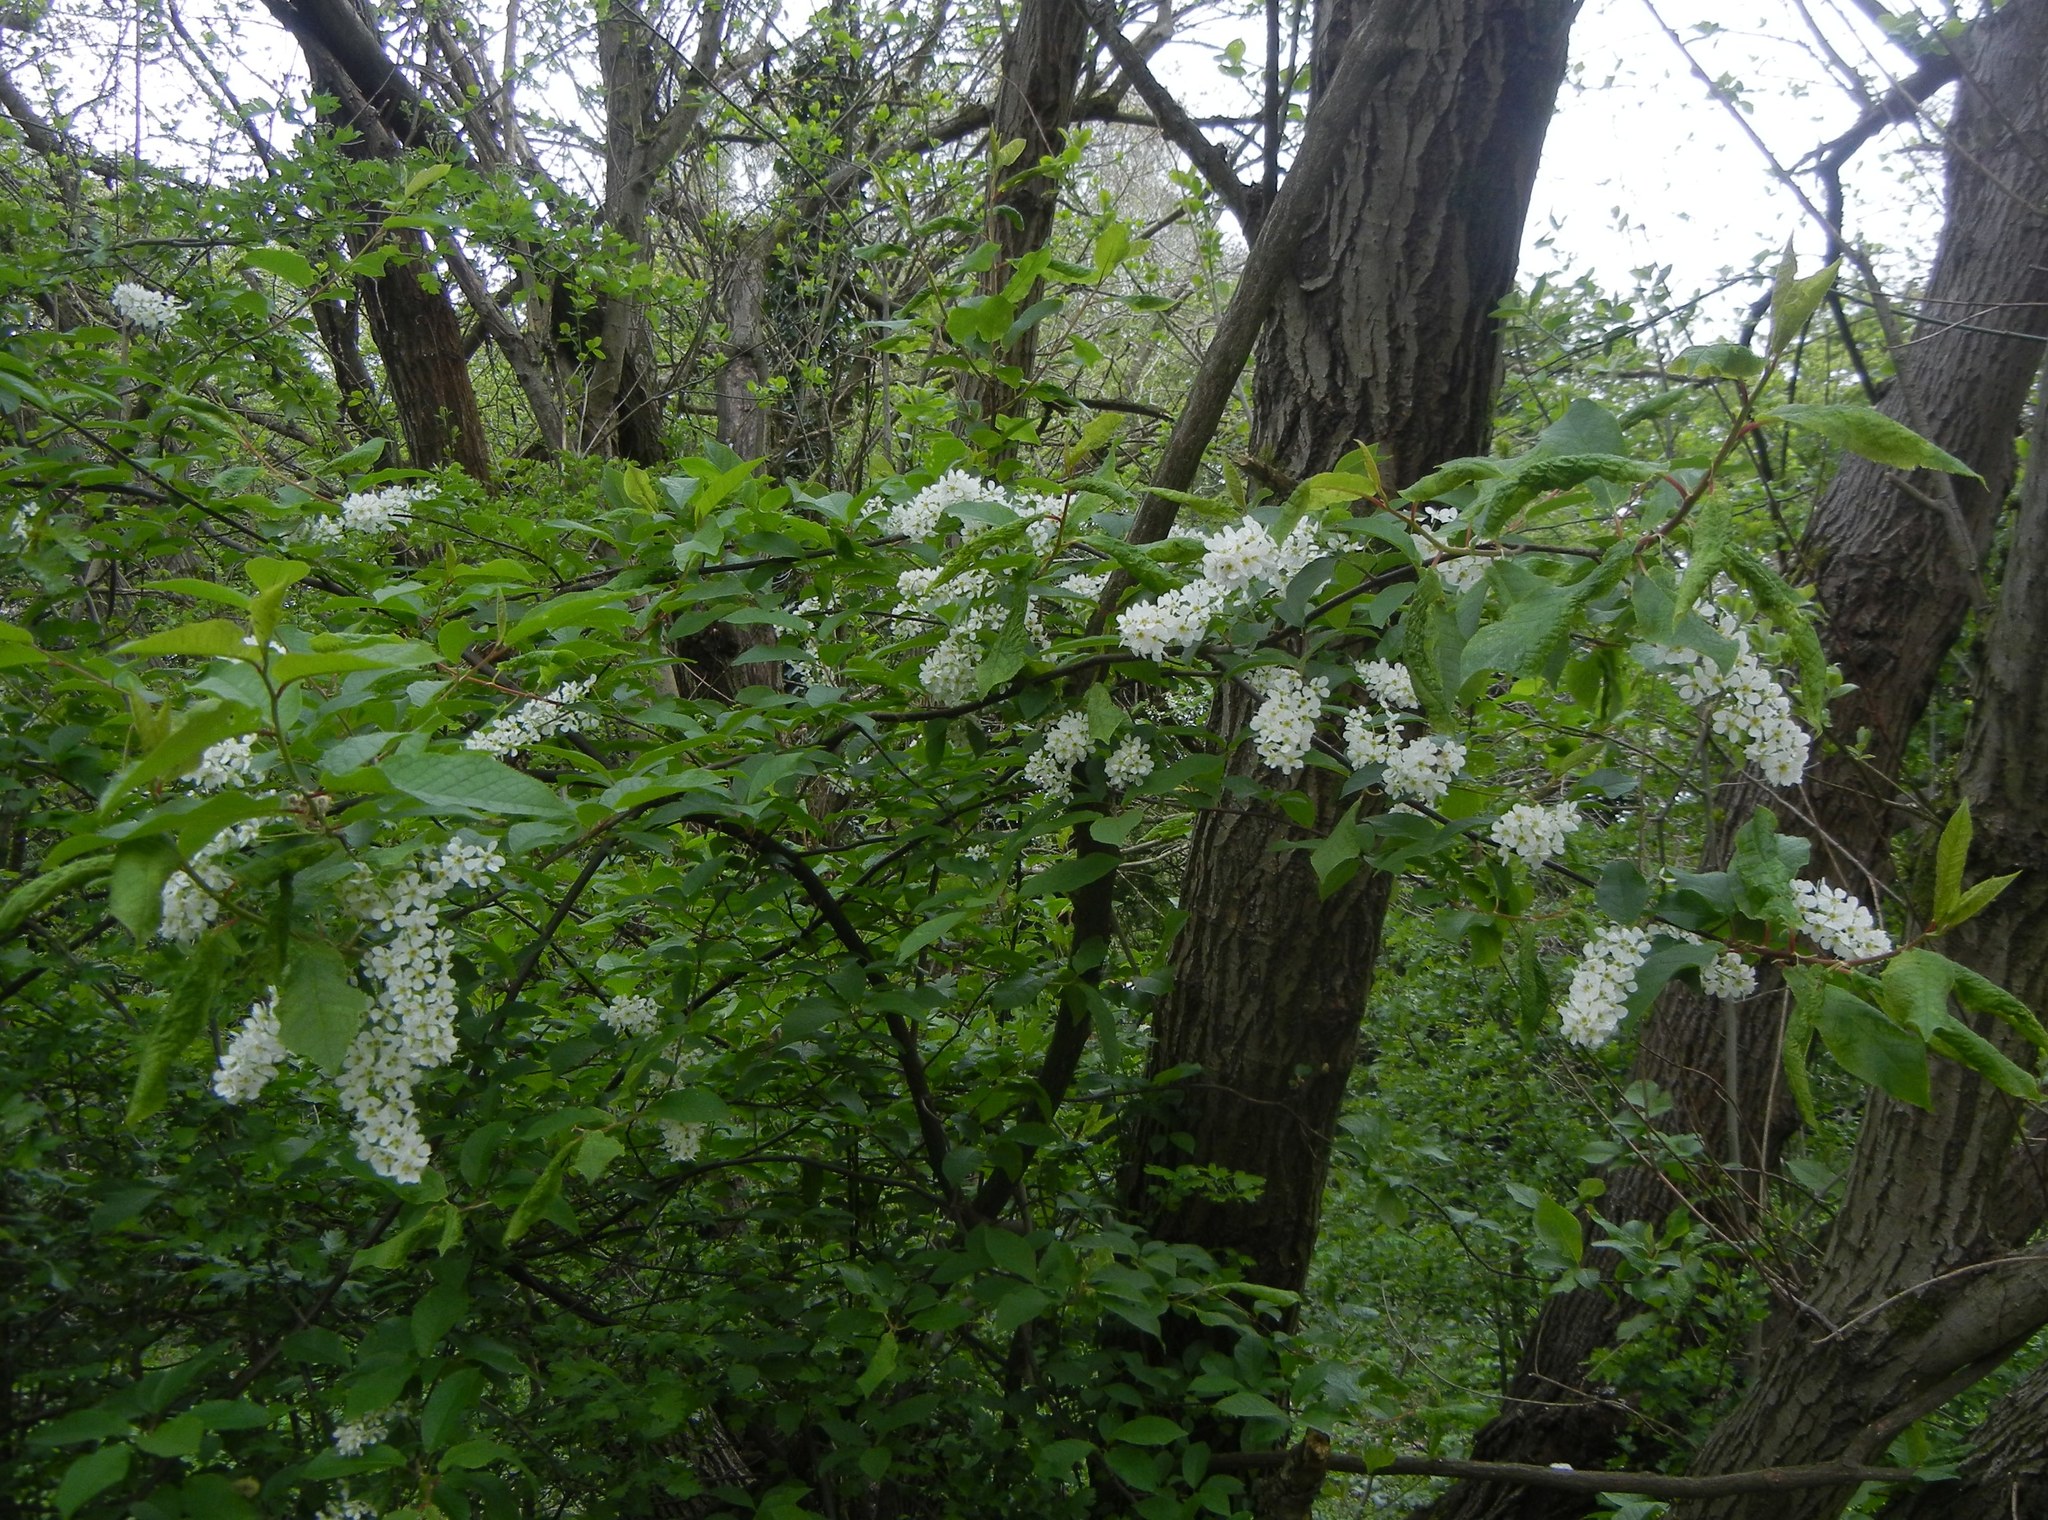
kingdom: Plantae
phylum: Tracheophyta
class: Magnoliopsida
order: Rosales
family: Rosaceae
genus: Prunus
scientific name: Prunus padus
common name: Bird cherry
